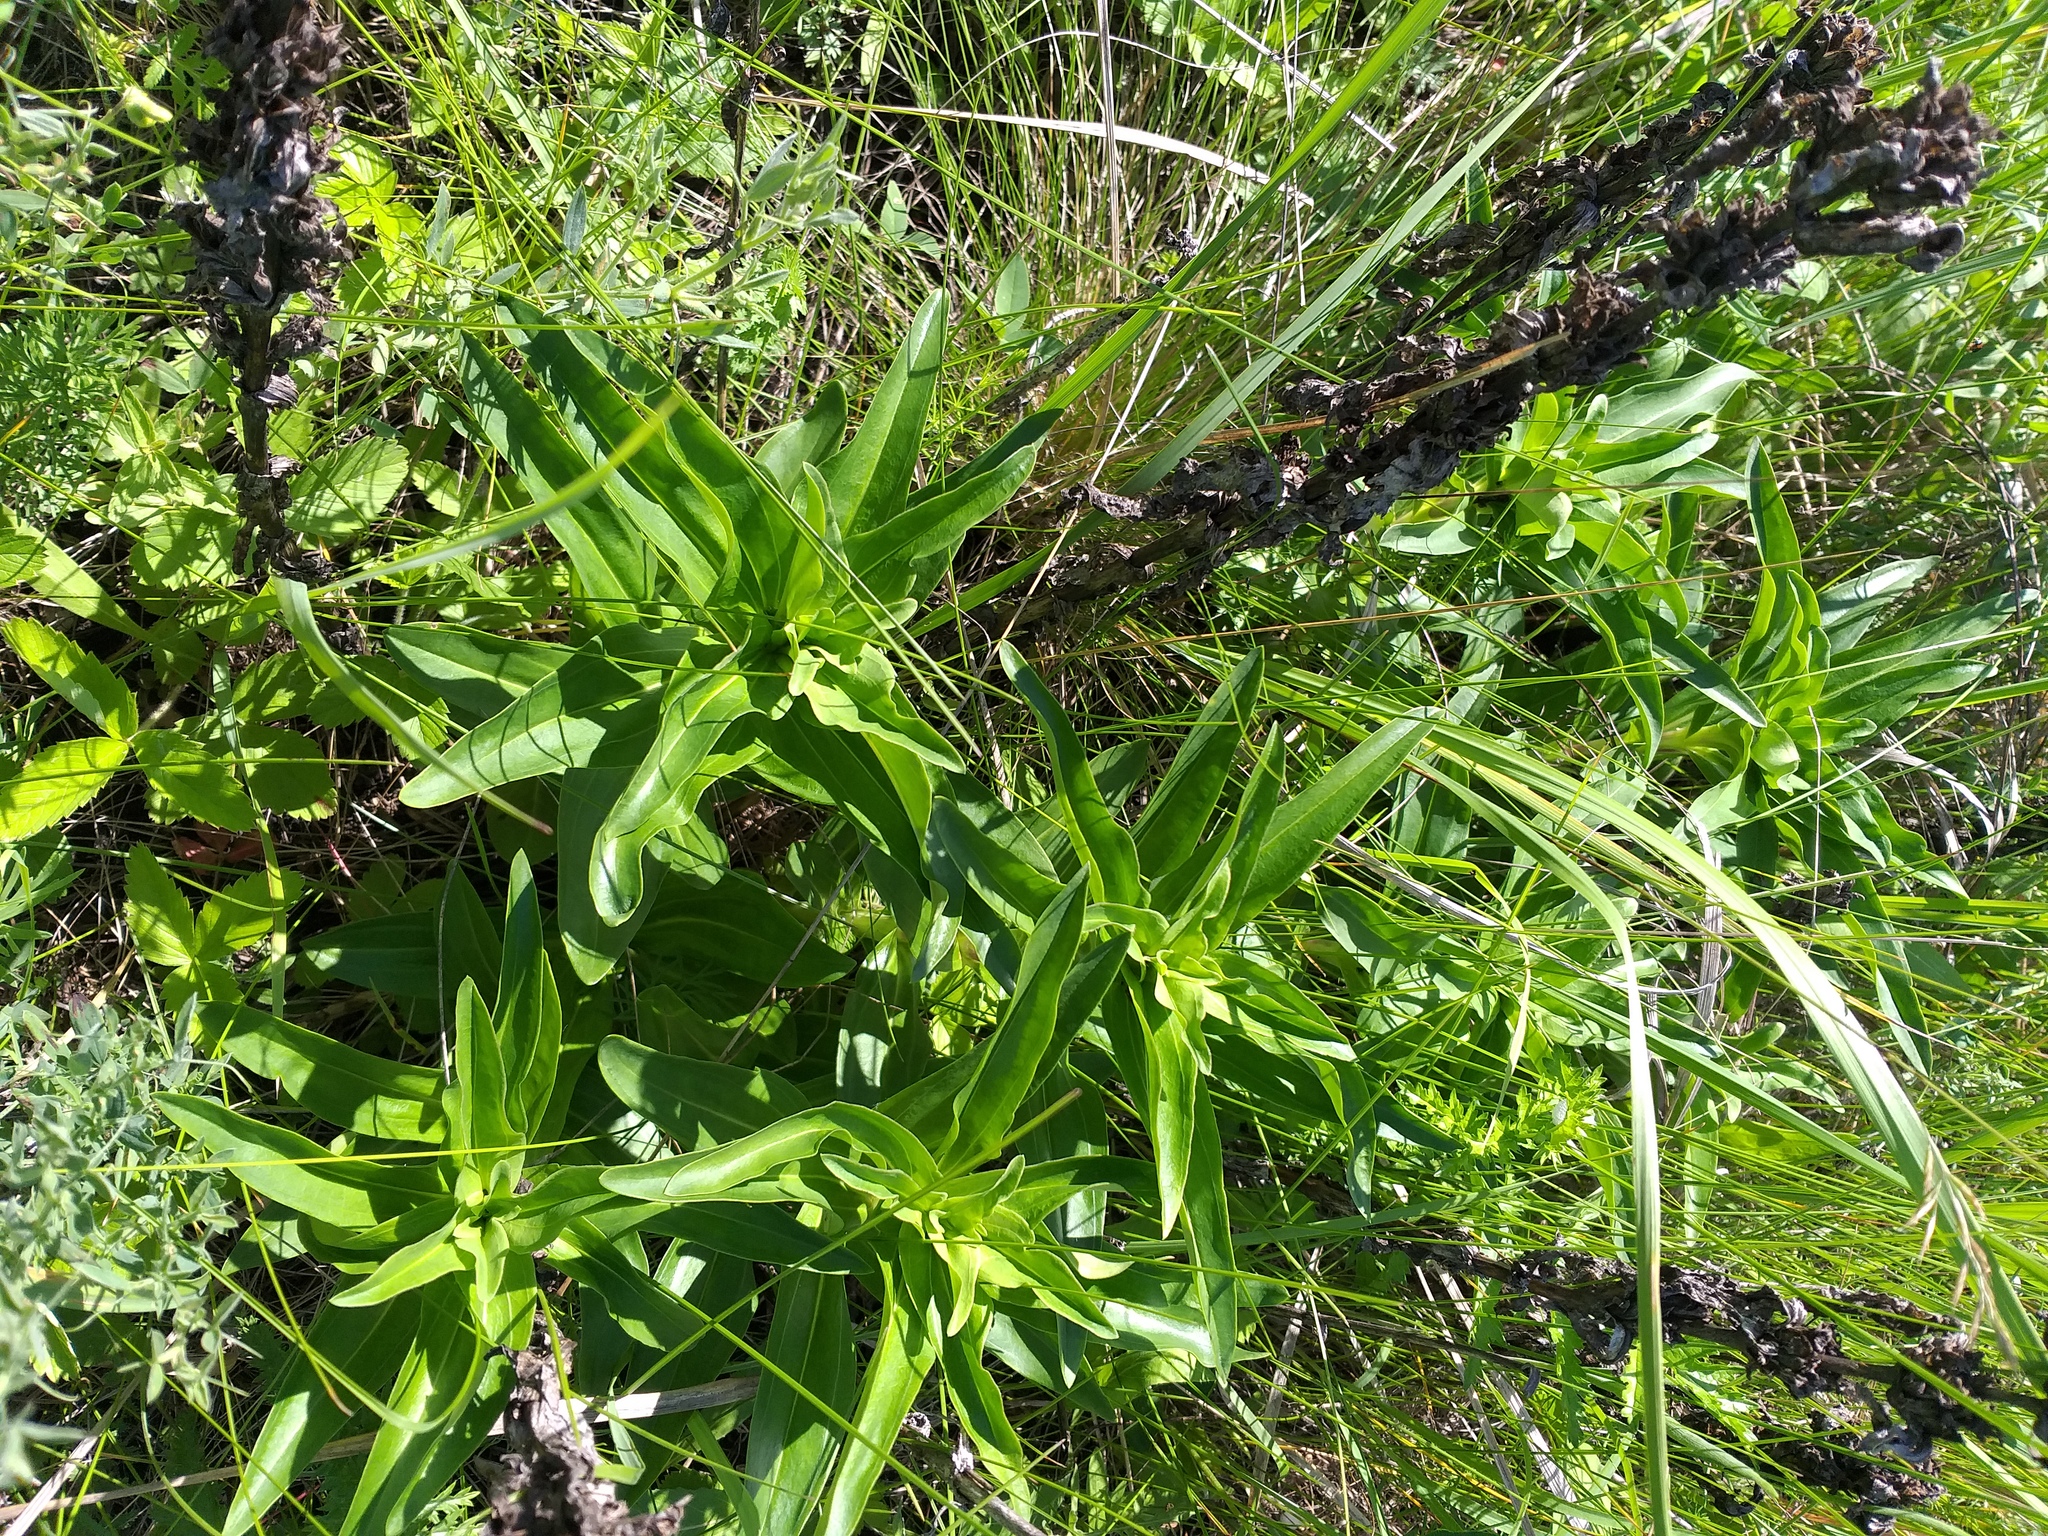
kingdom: Plantae
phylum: Tracheophyta
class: Magnoliopsida
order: Gentianales
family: Gentianaceae
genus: Gentiana
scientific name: Gentiana cruciata
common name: Cross gentian
